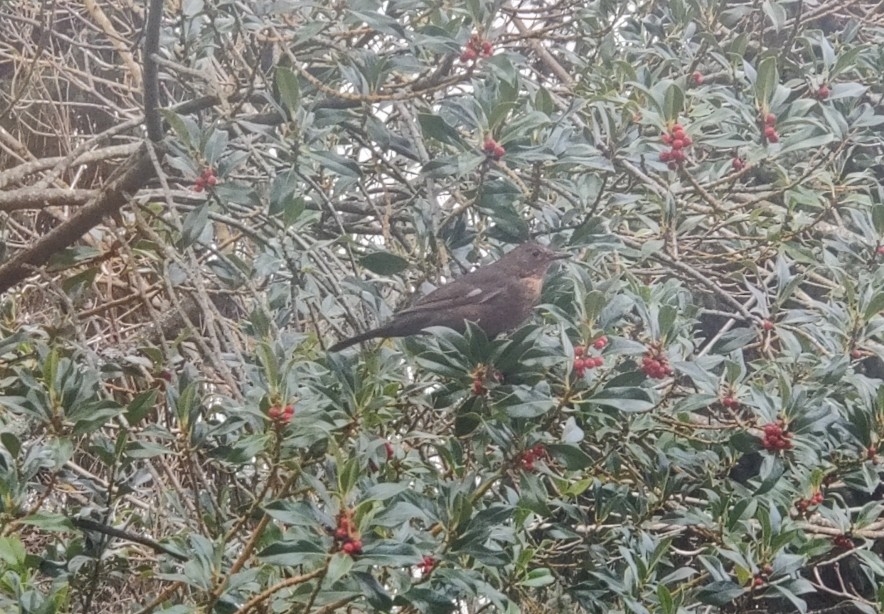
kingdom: Animalia
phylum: Chordata
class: Aves
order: Passeriformes
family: Turdidae
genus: Turdus
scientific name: Turdus merula
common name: Common blackbird
